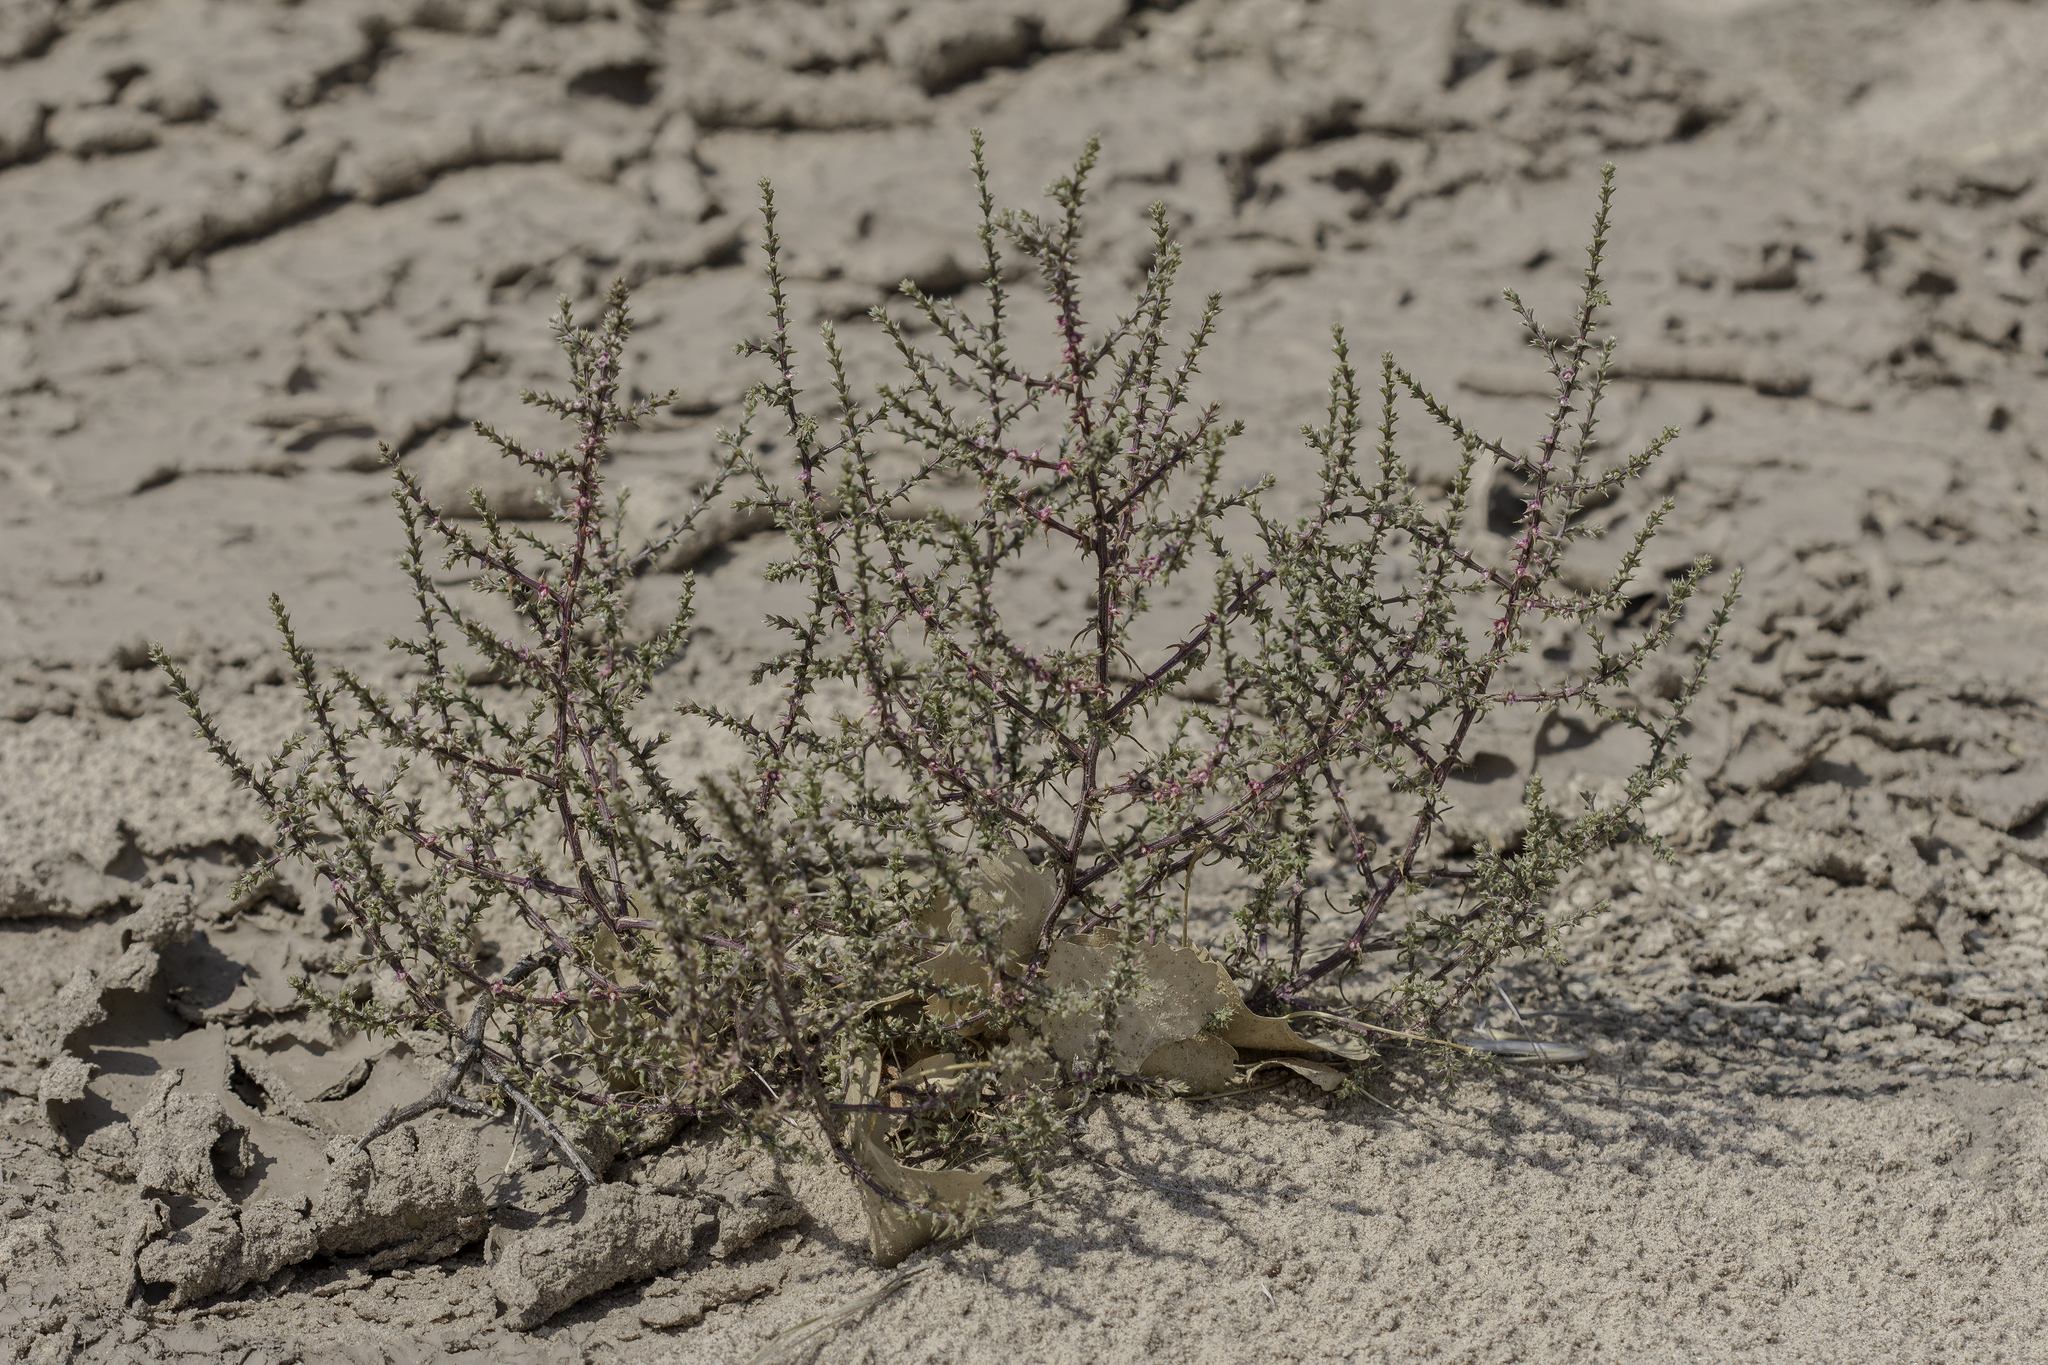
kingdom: Plantae
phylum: Tracheophyta
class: Magnoliopsida
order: Caryophyllales
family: Amaranthaceae
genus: Salsola
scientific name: Salsola tragus
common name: Prickly russian thistle
